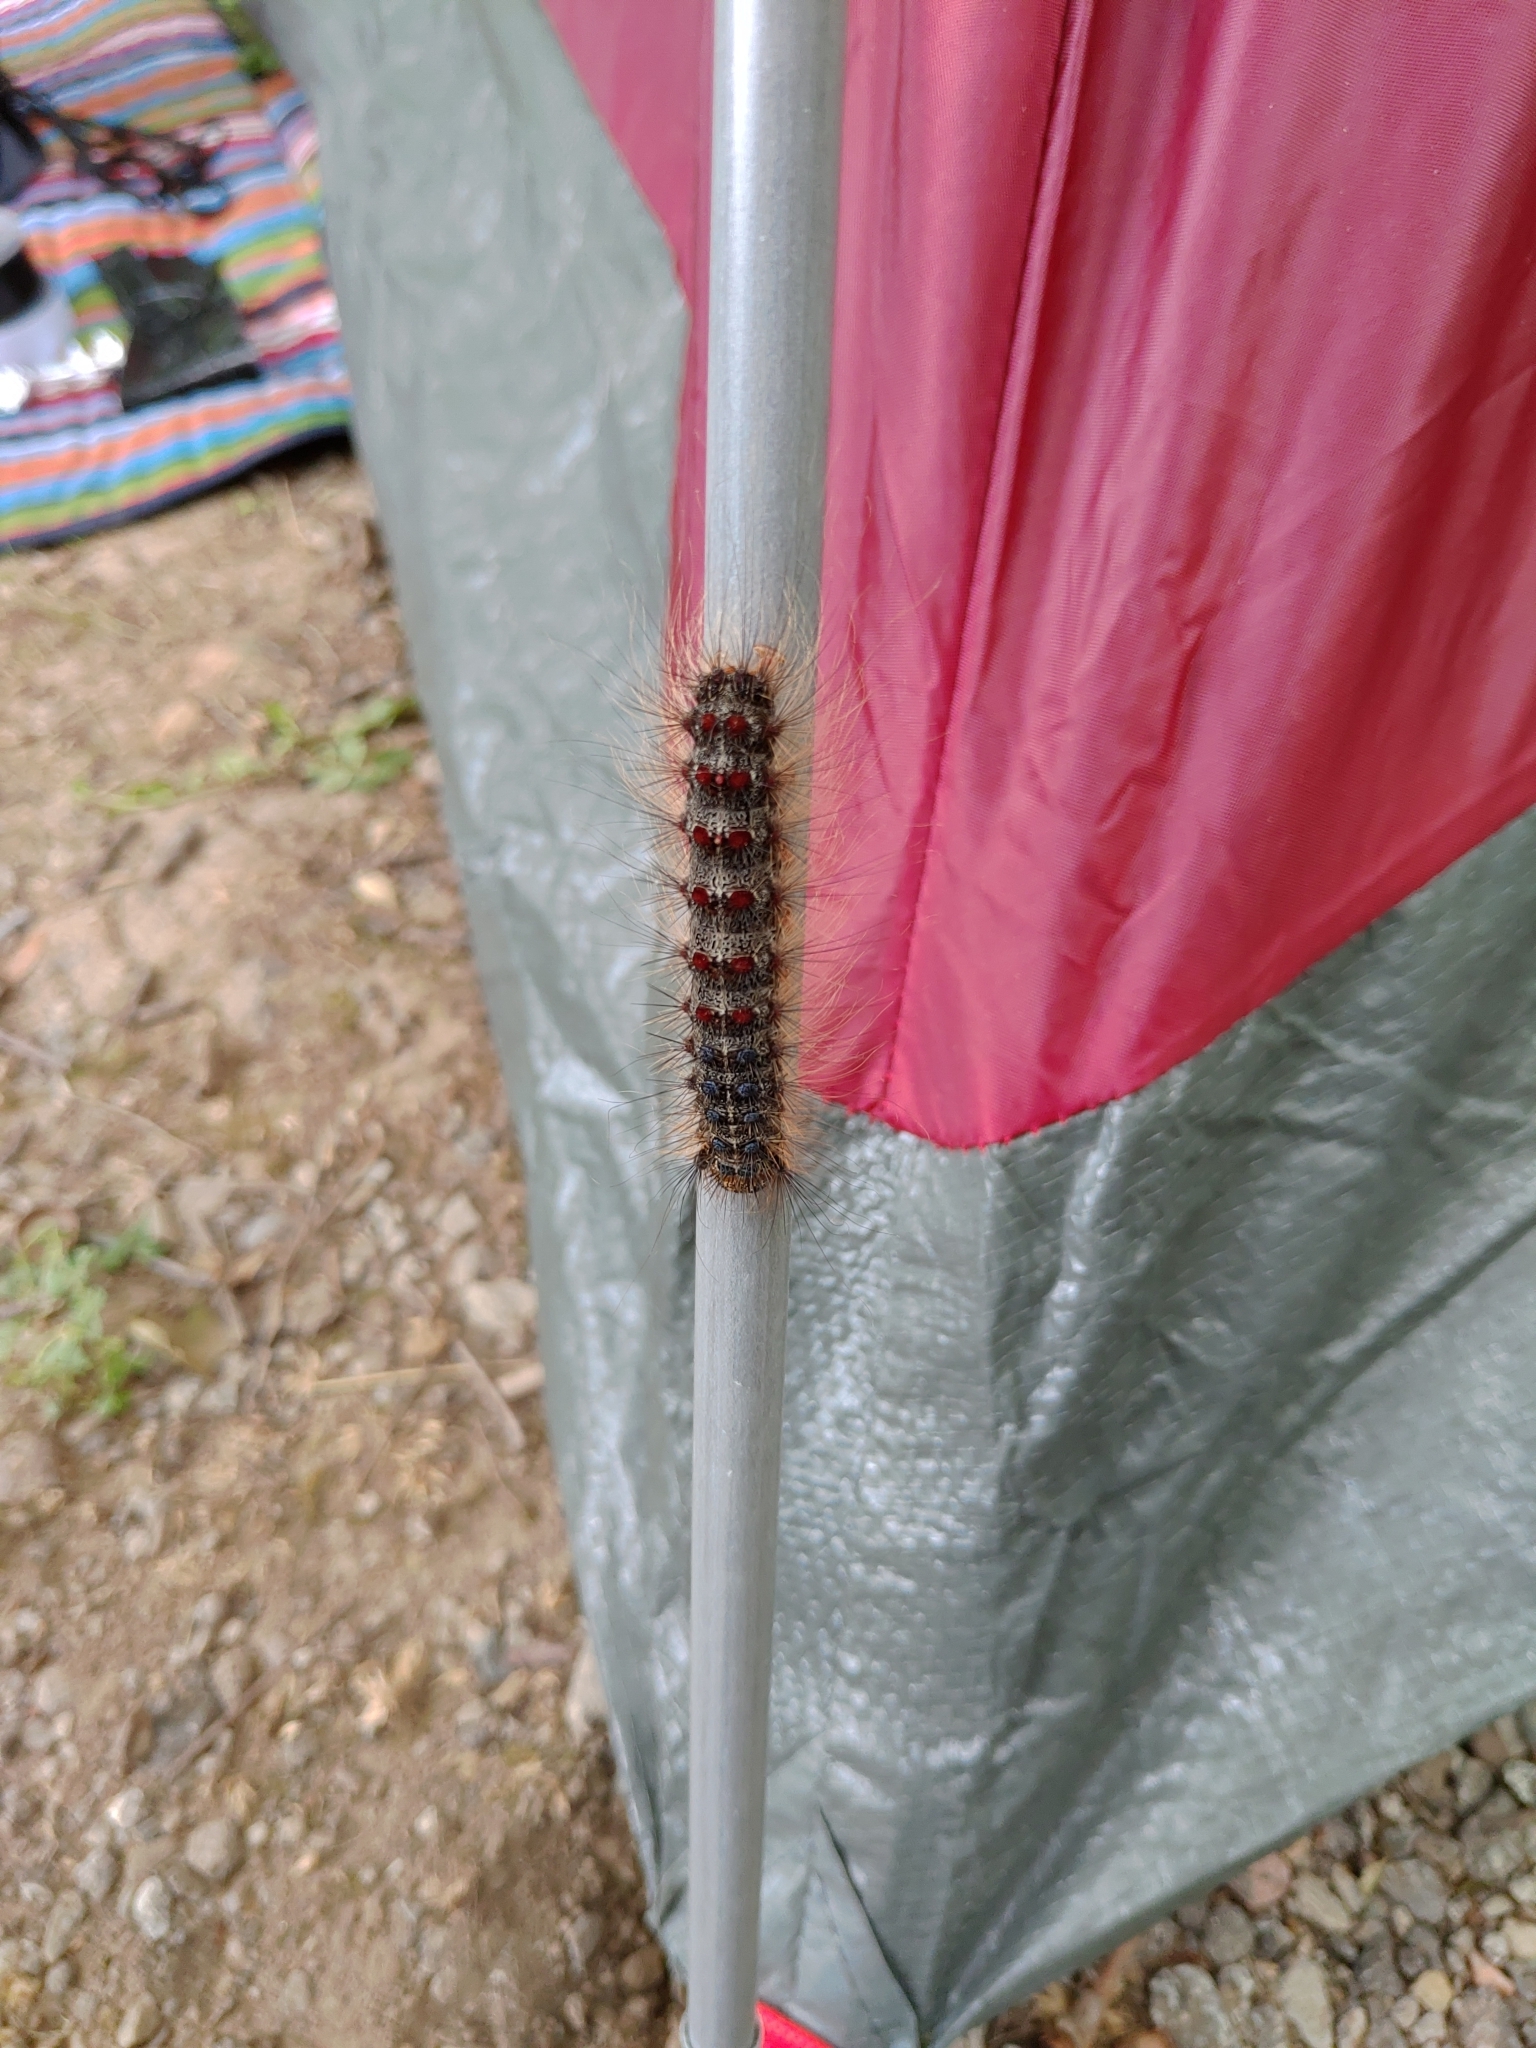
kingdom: Animalia
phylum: Arthropoda
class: Insecta
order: Lepidoptera
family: Erebidae
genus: Lymantria
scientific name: Lymantria dispar
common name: Gypsy moth
